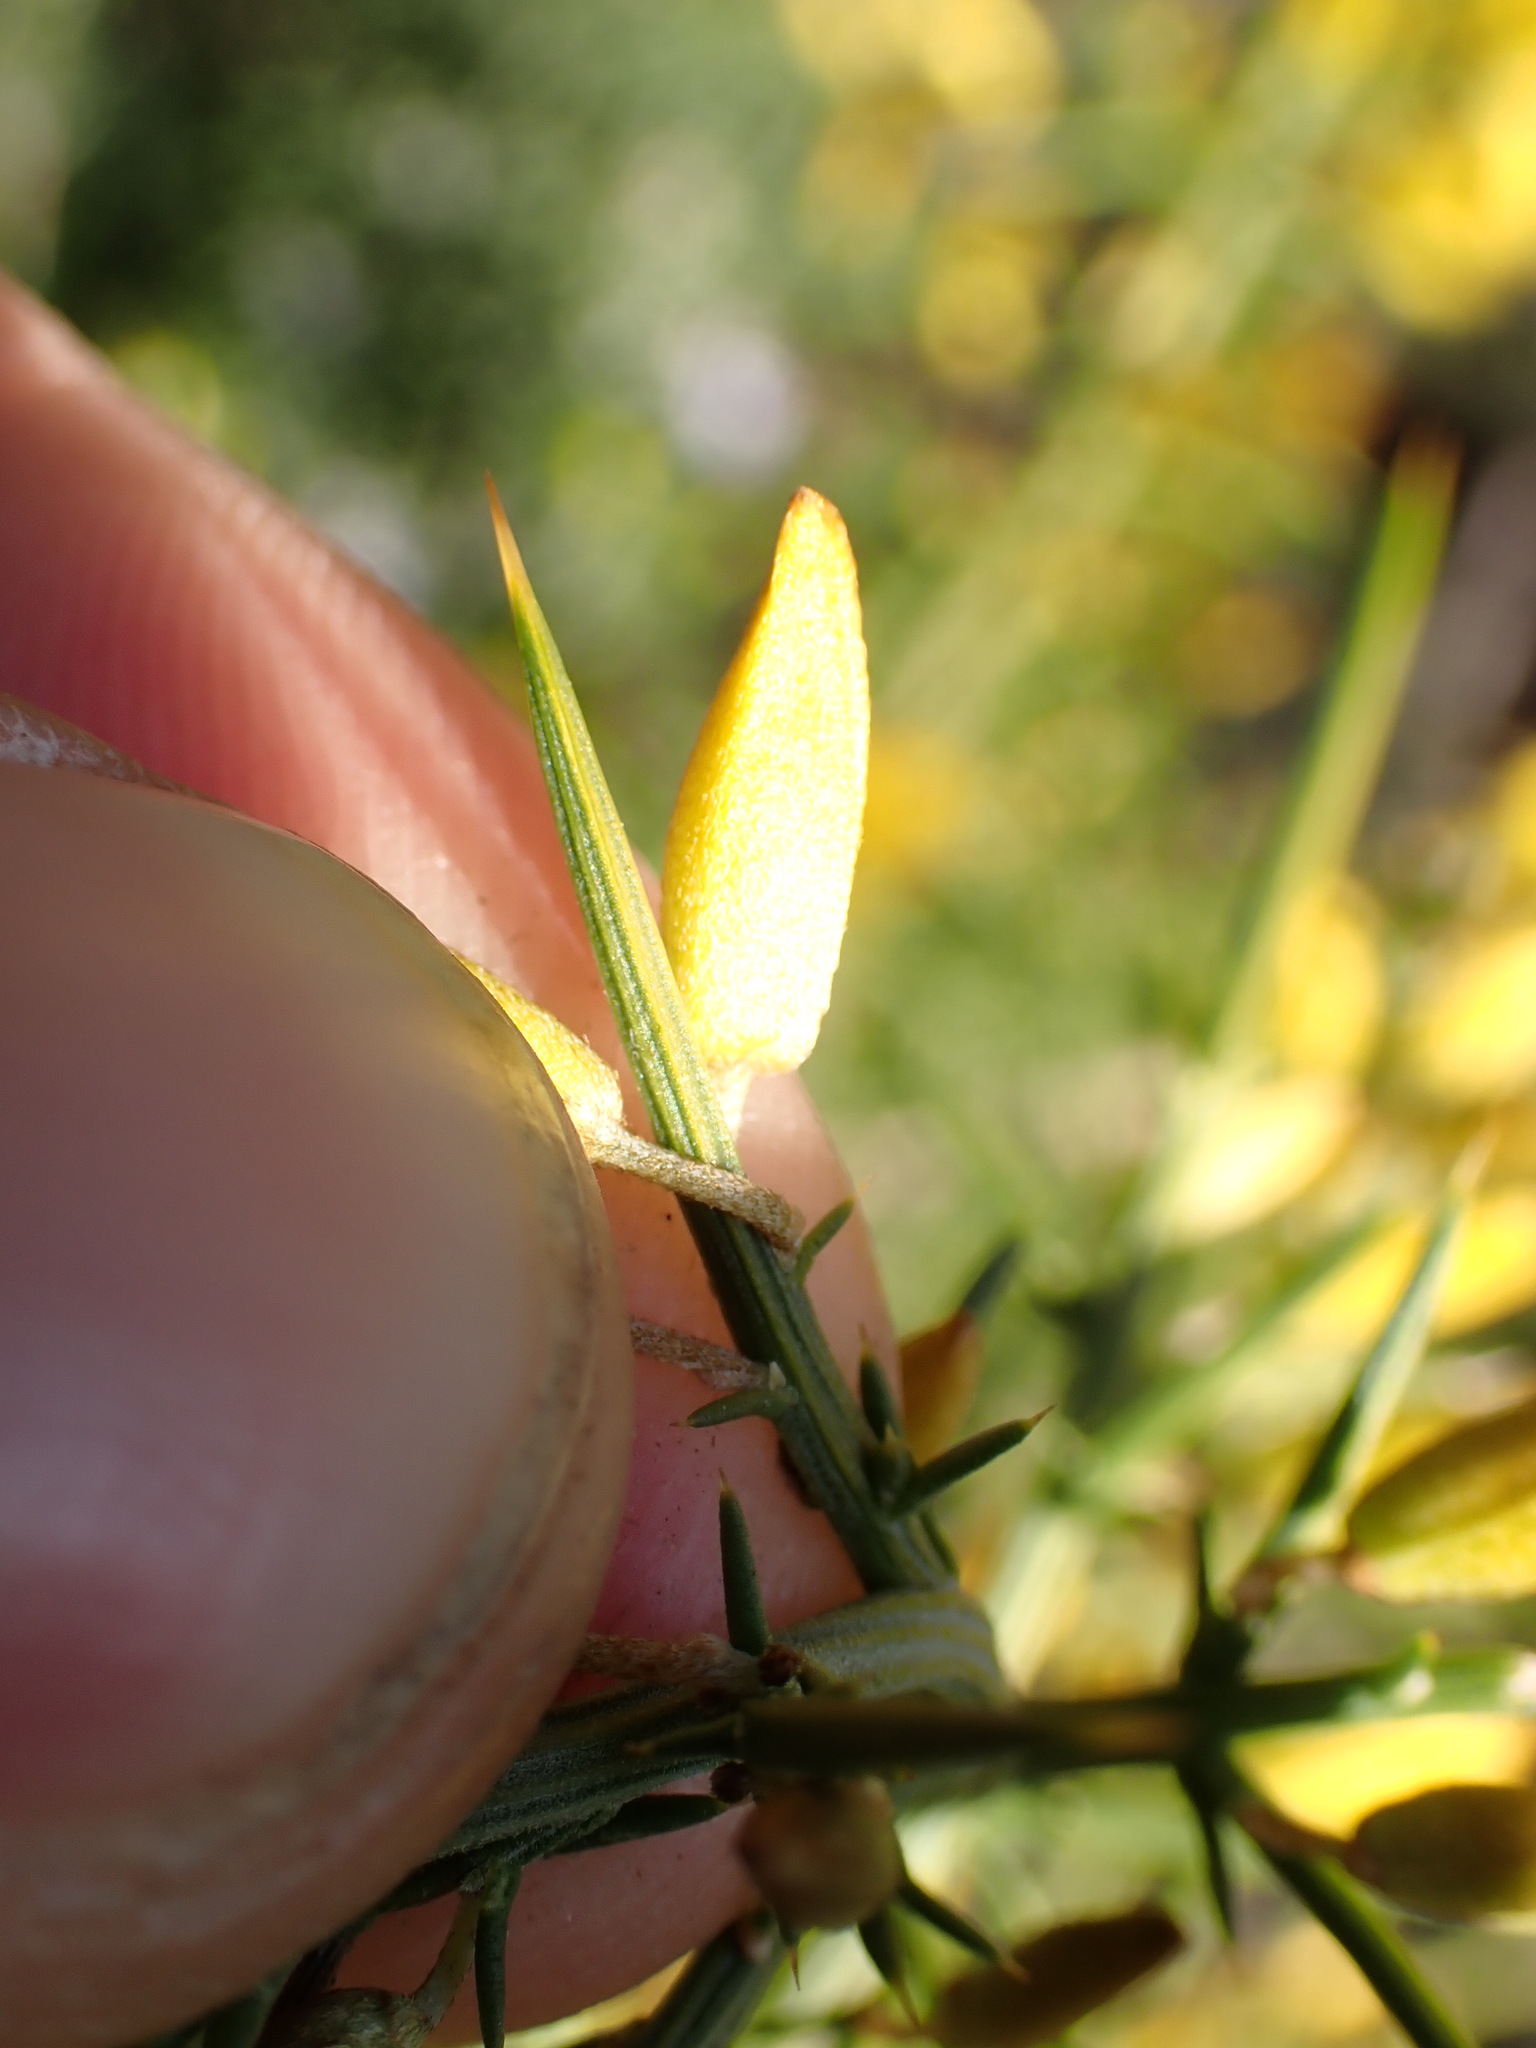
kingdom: Plantae
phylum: Tracheophyta
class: Magnoliopsida
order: Fabales
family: Fabaceae
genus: Ulex
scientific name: Ulex parviflorus
